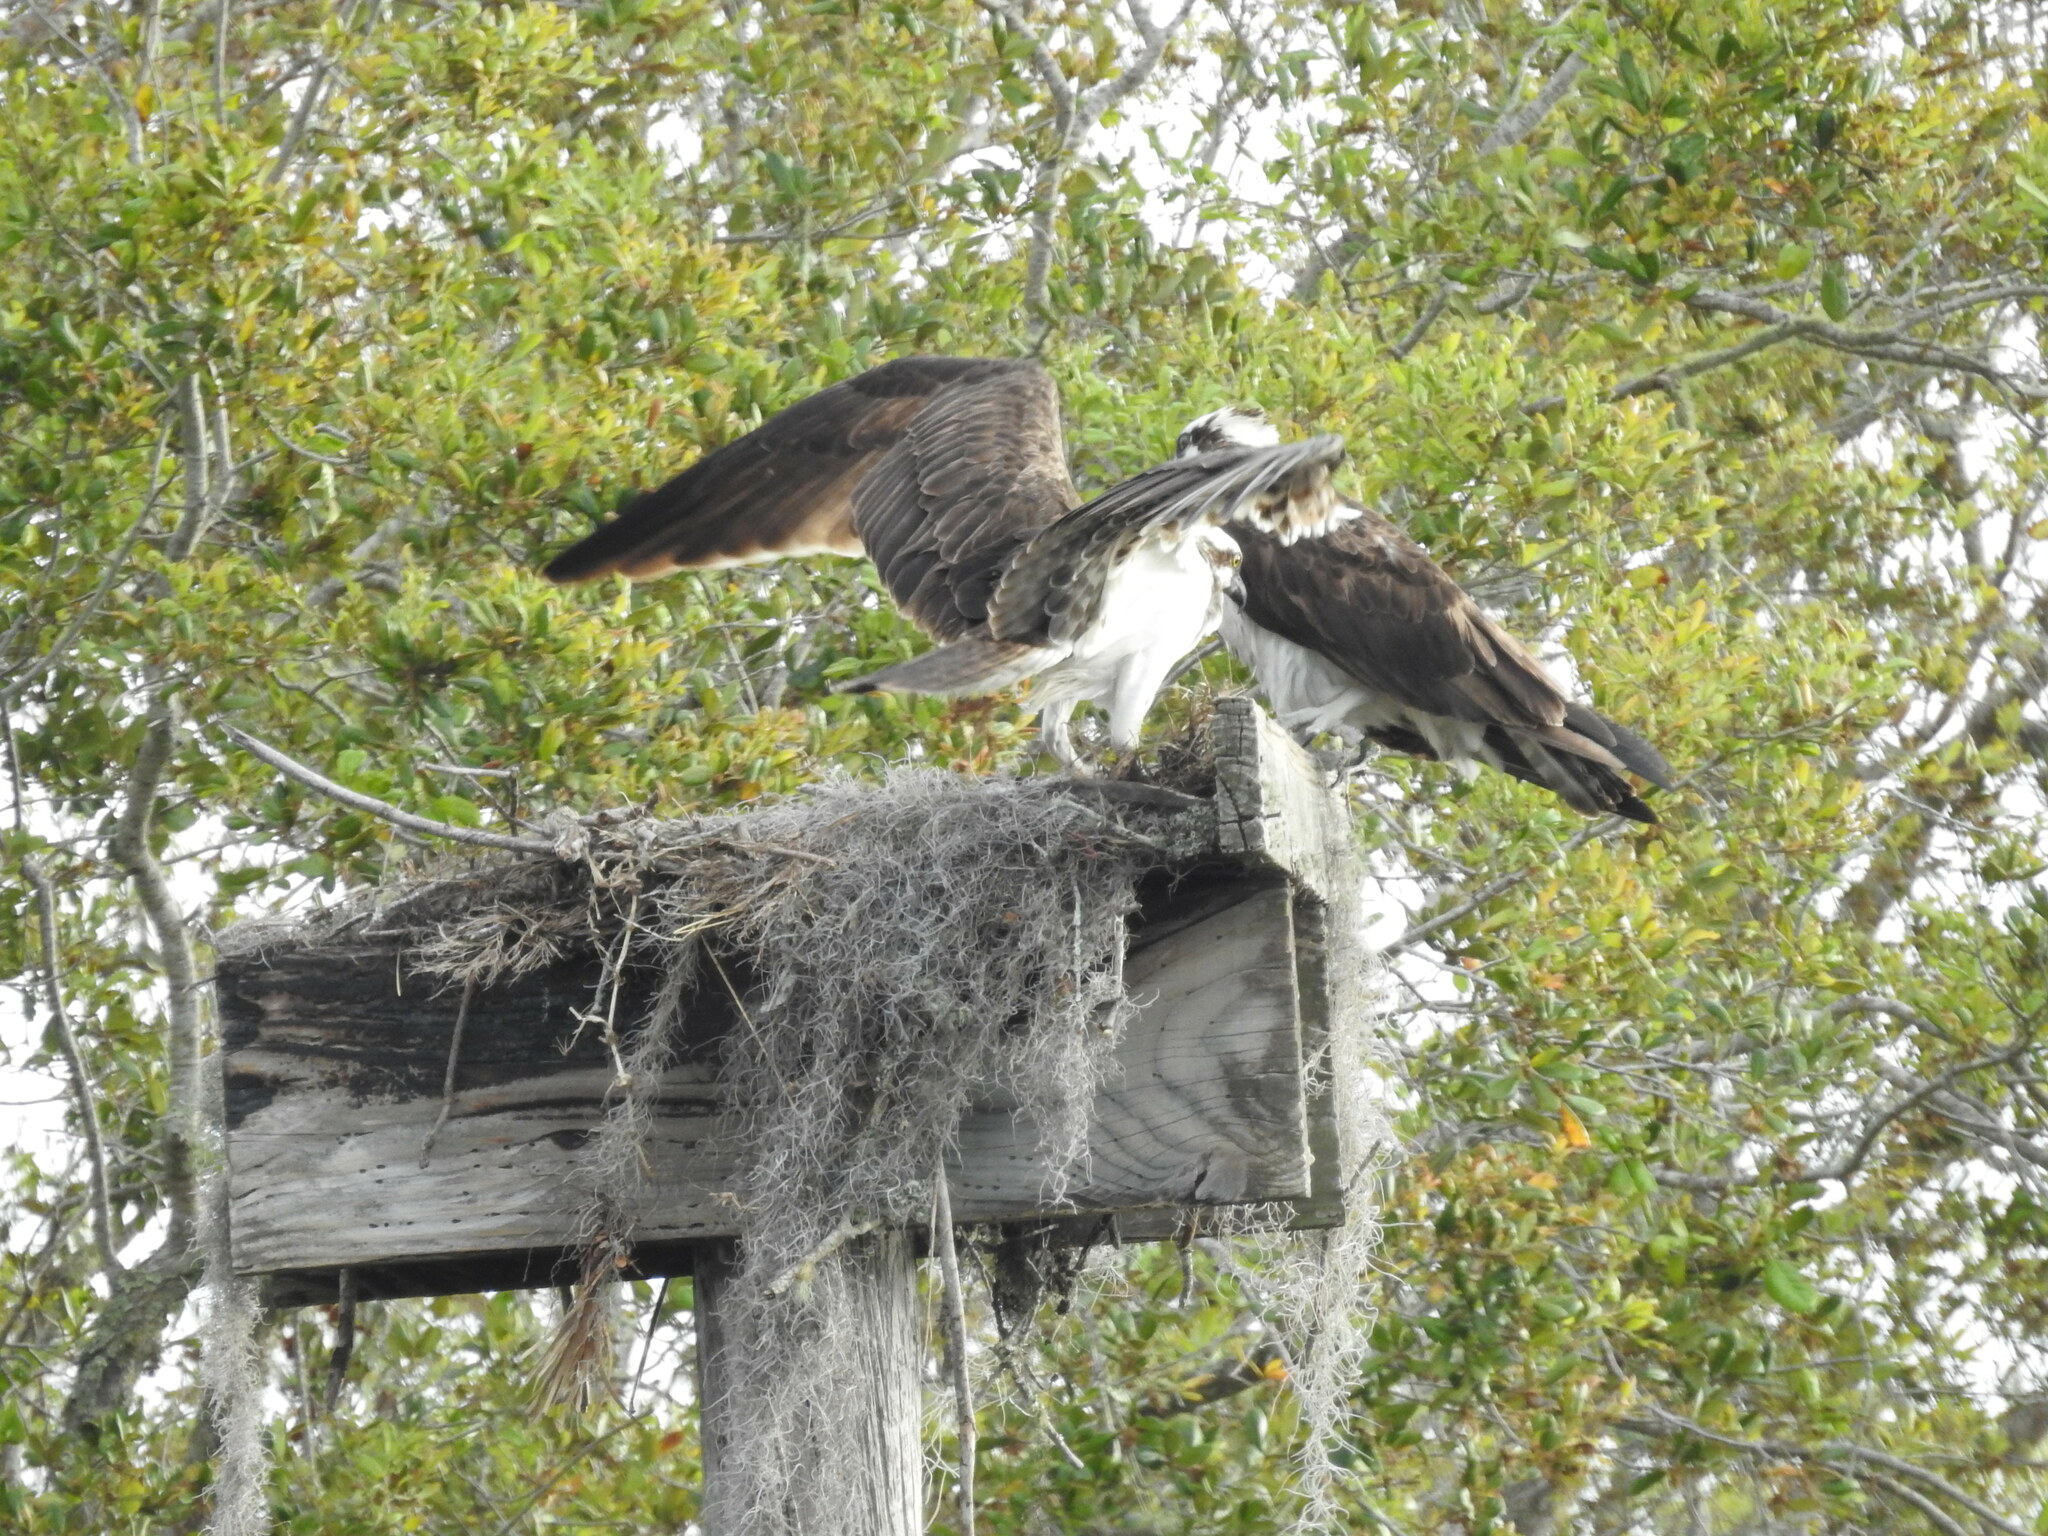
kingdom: Animalia
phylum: Chordata
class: Aves
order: Accipitriformes
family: Pandionidae
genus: Pandion
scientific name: Pandion haliaetus
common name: Osprey
